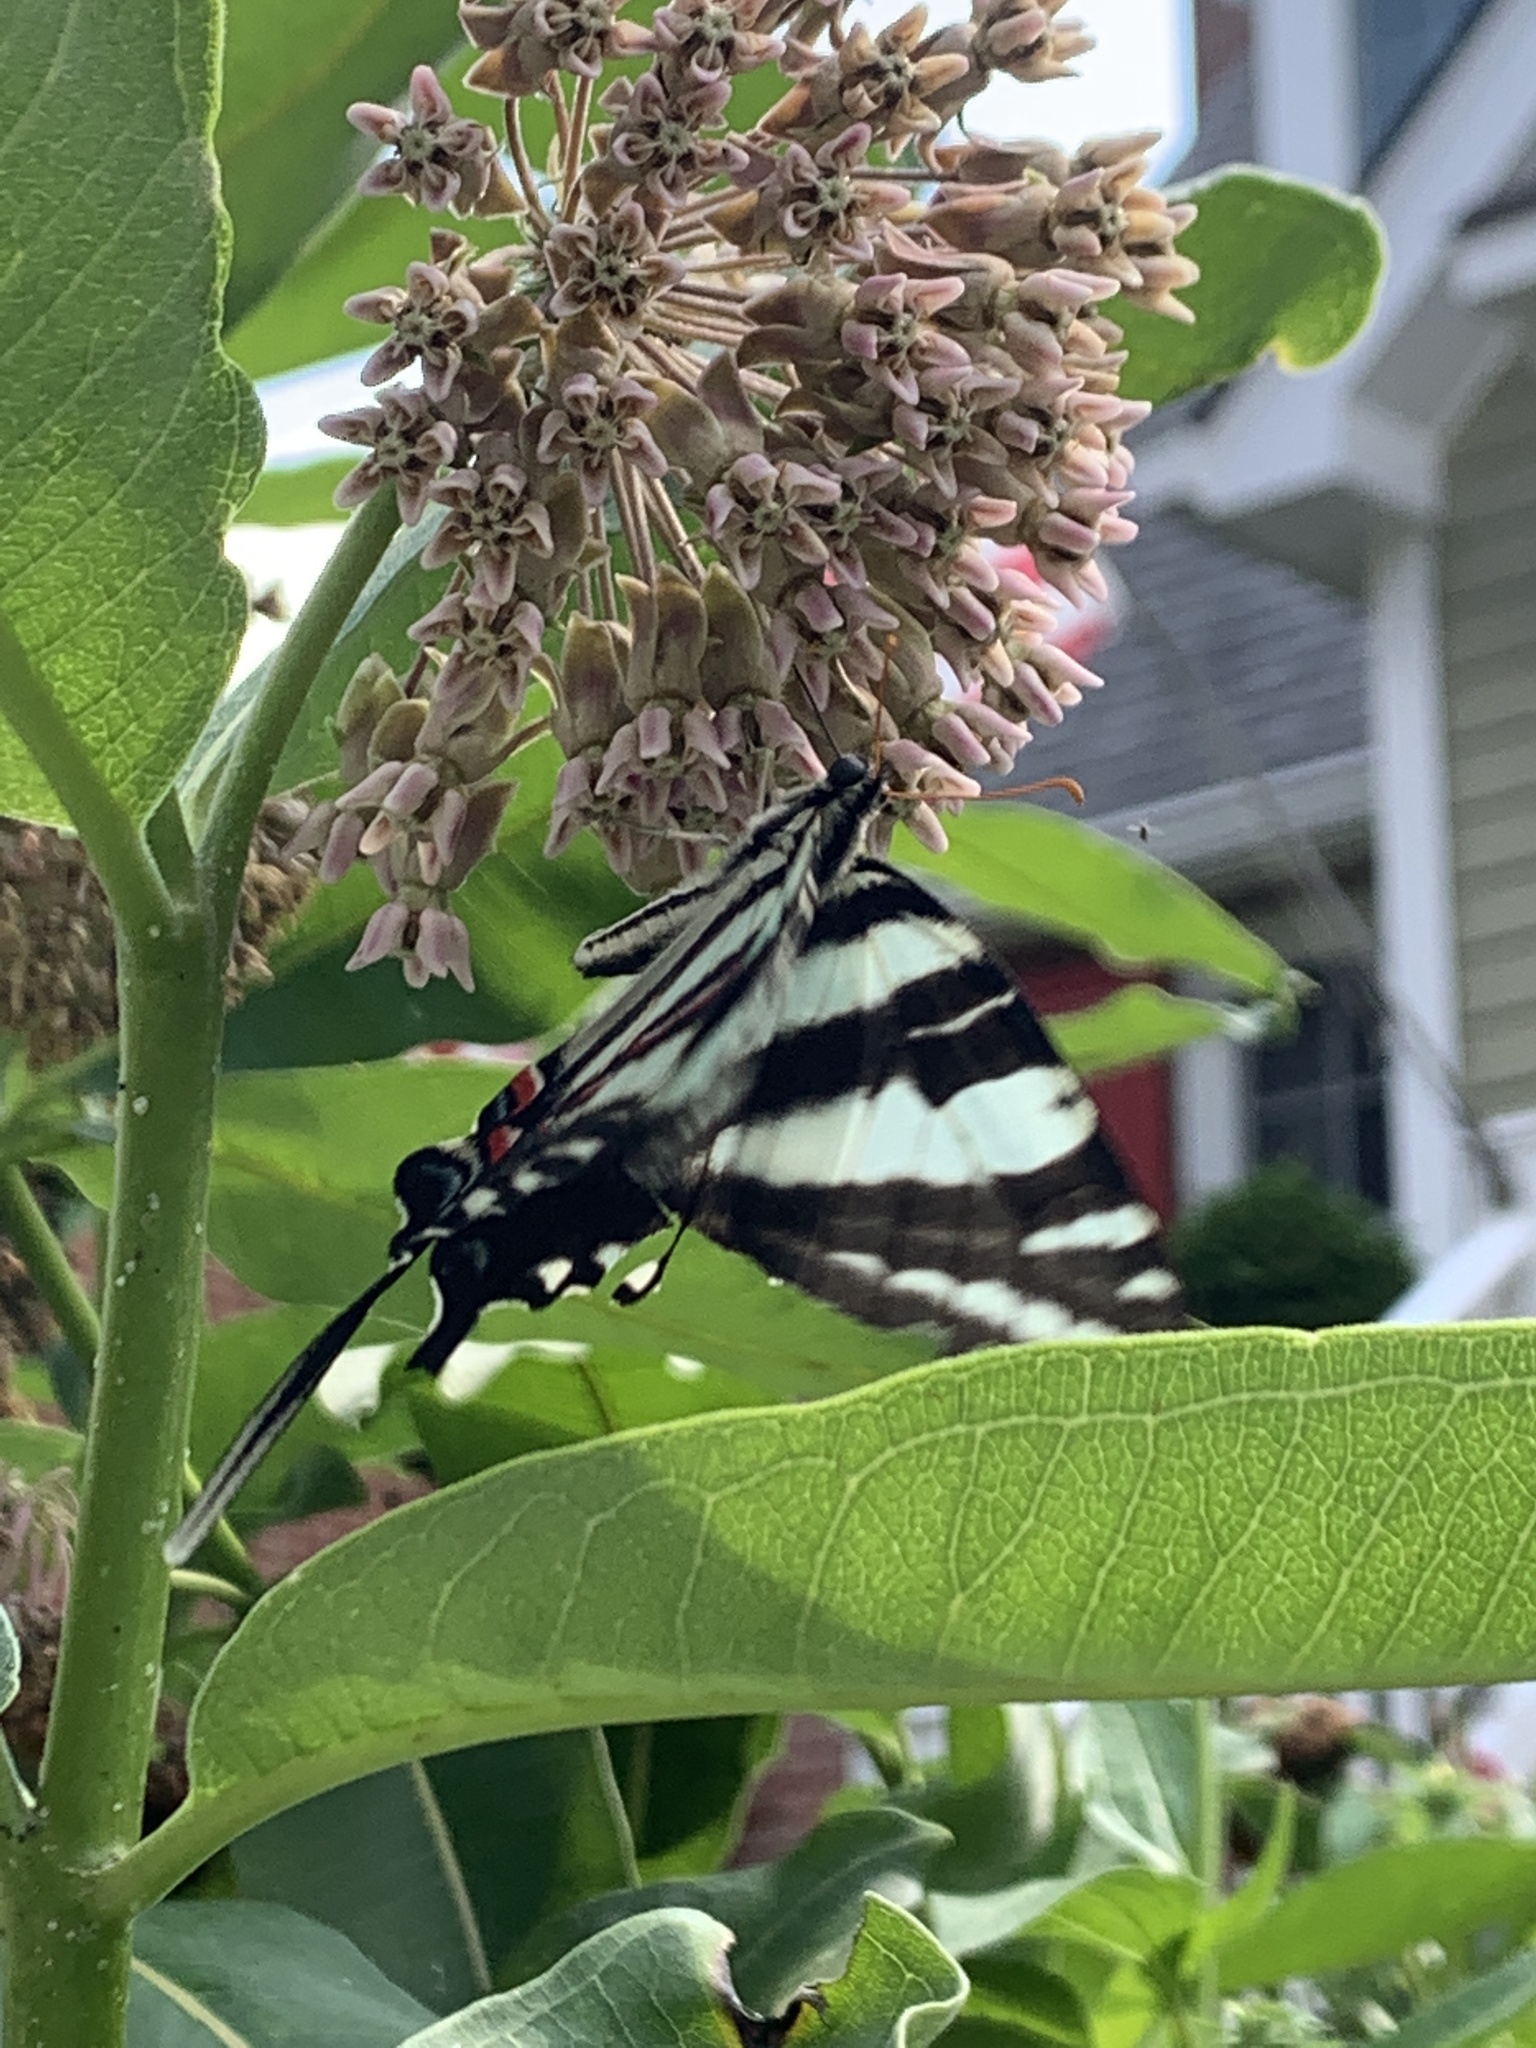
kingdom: Animalia
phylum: Arthropoda
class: Insecta
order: Lepidoptera
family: Papilionidae
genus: Protographium
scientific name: Protographium marcellus
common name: Zebra swallowtail
